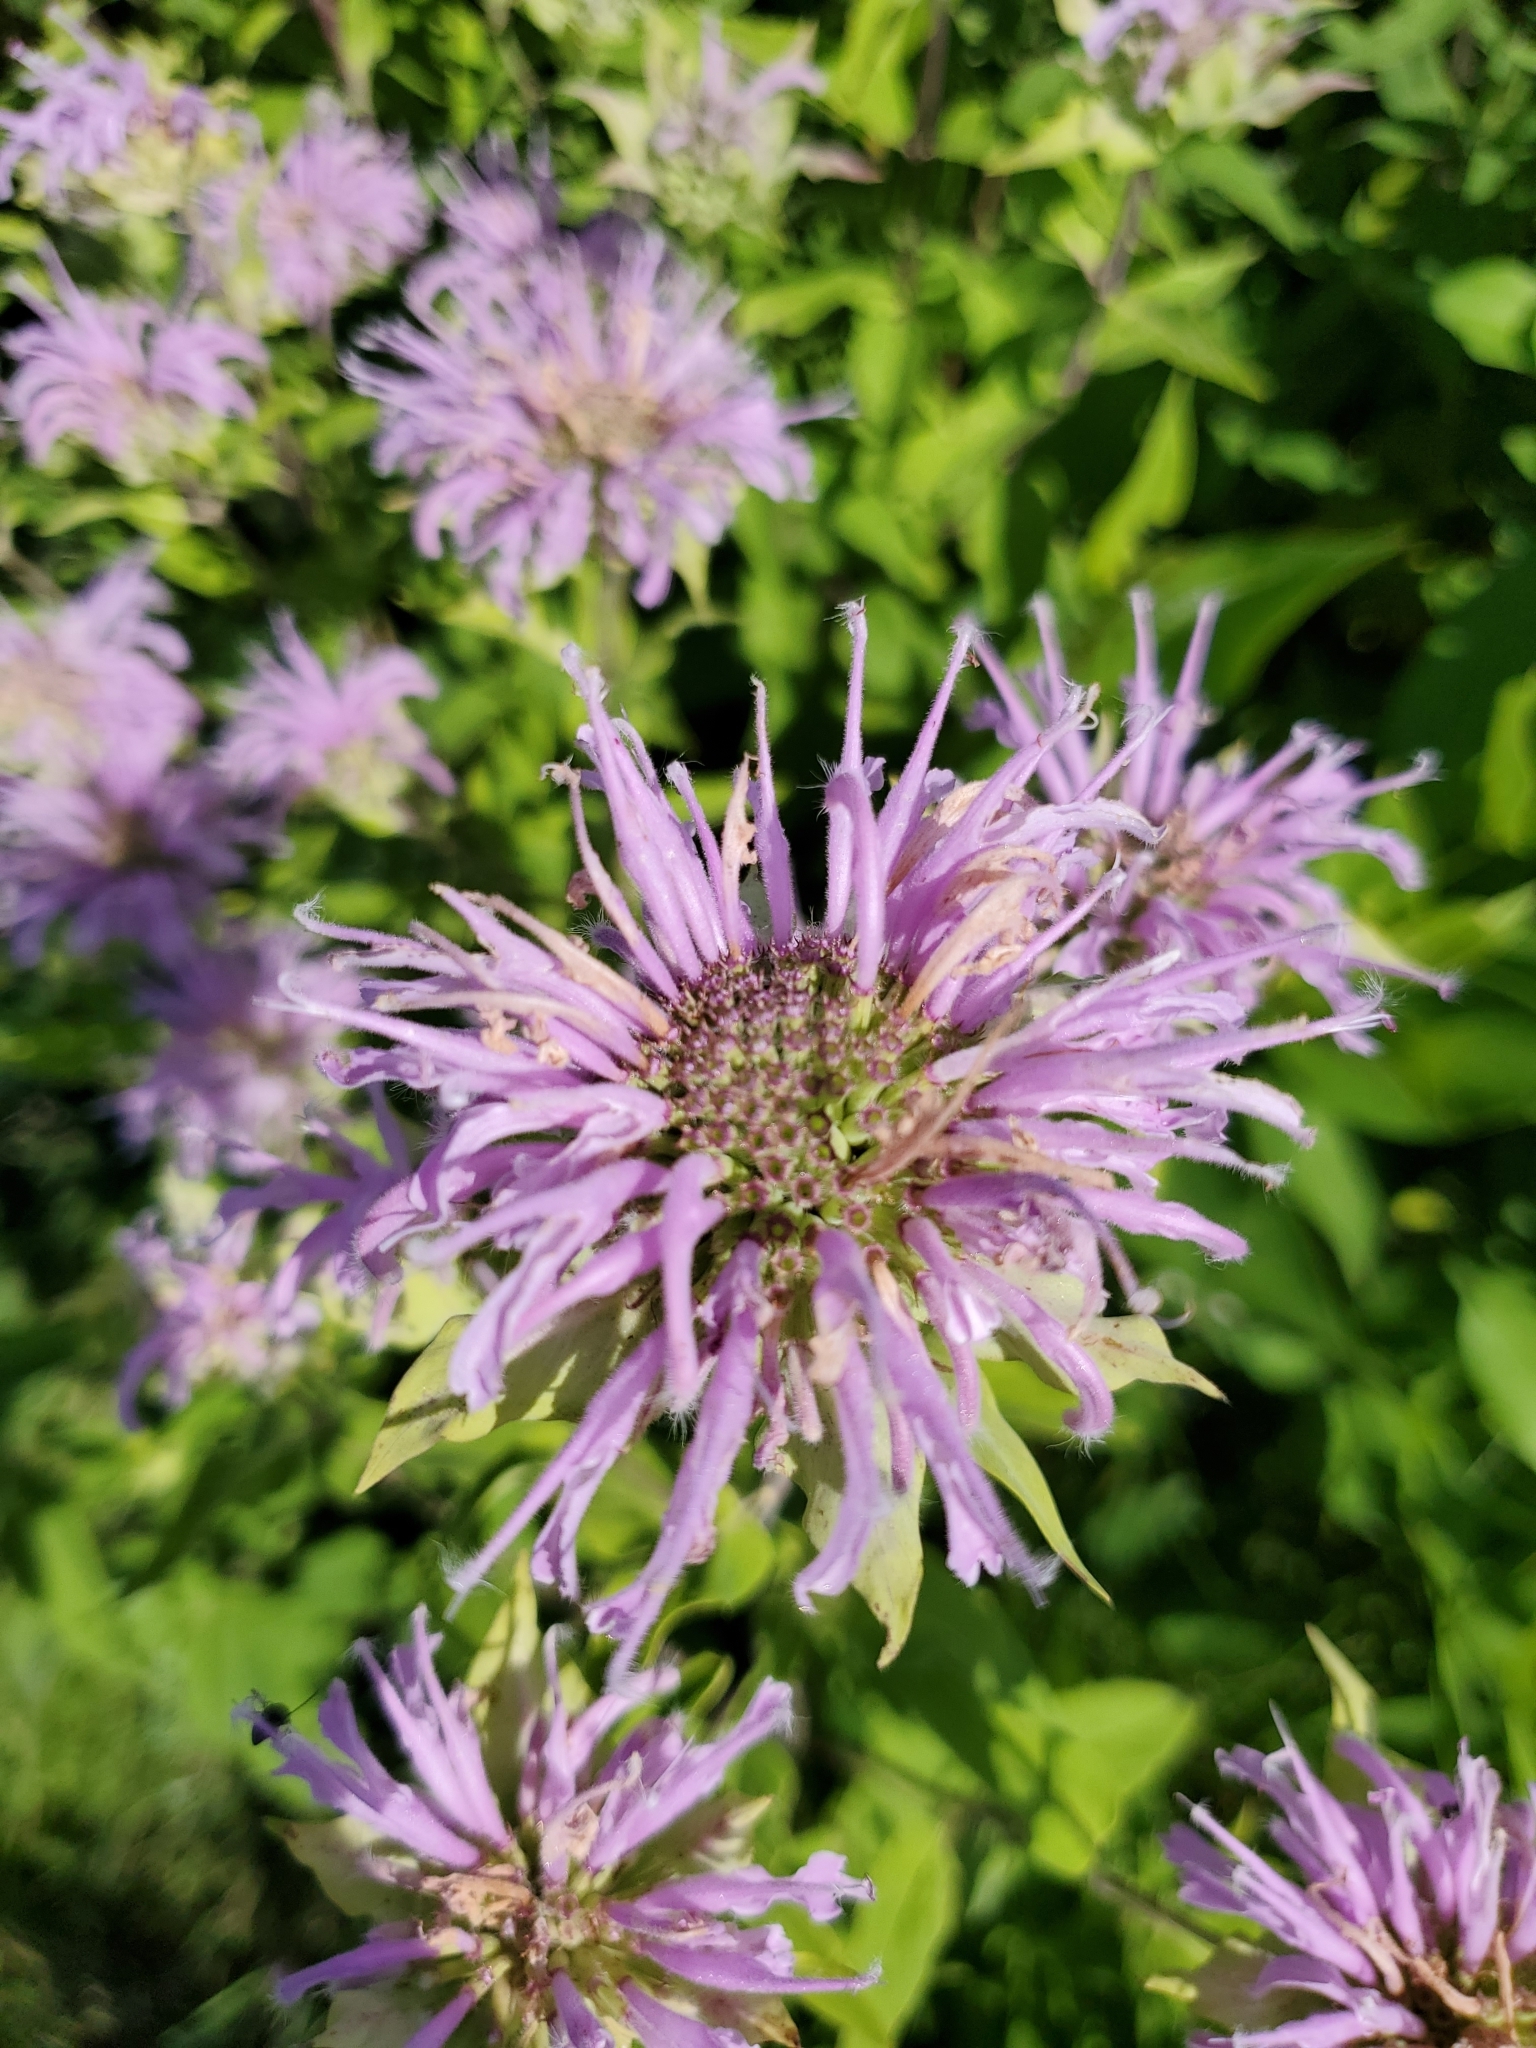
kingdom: Plantae
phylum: Tracheophyta
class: Magnoliopsida
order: Lamiales
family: Lamiaceae
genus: Monarda
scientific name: Monarda fistulosa
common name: Purple beebalm
